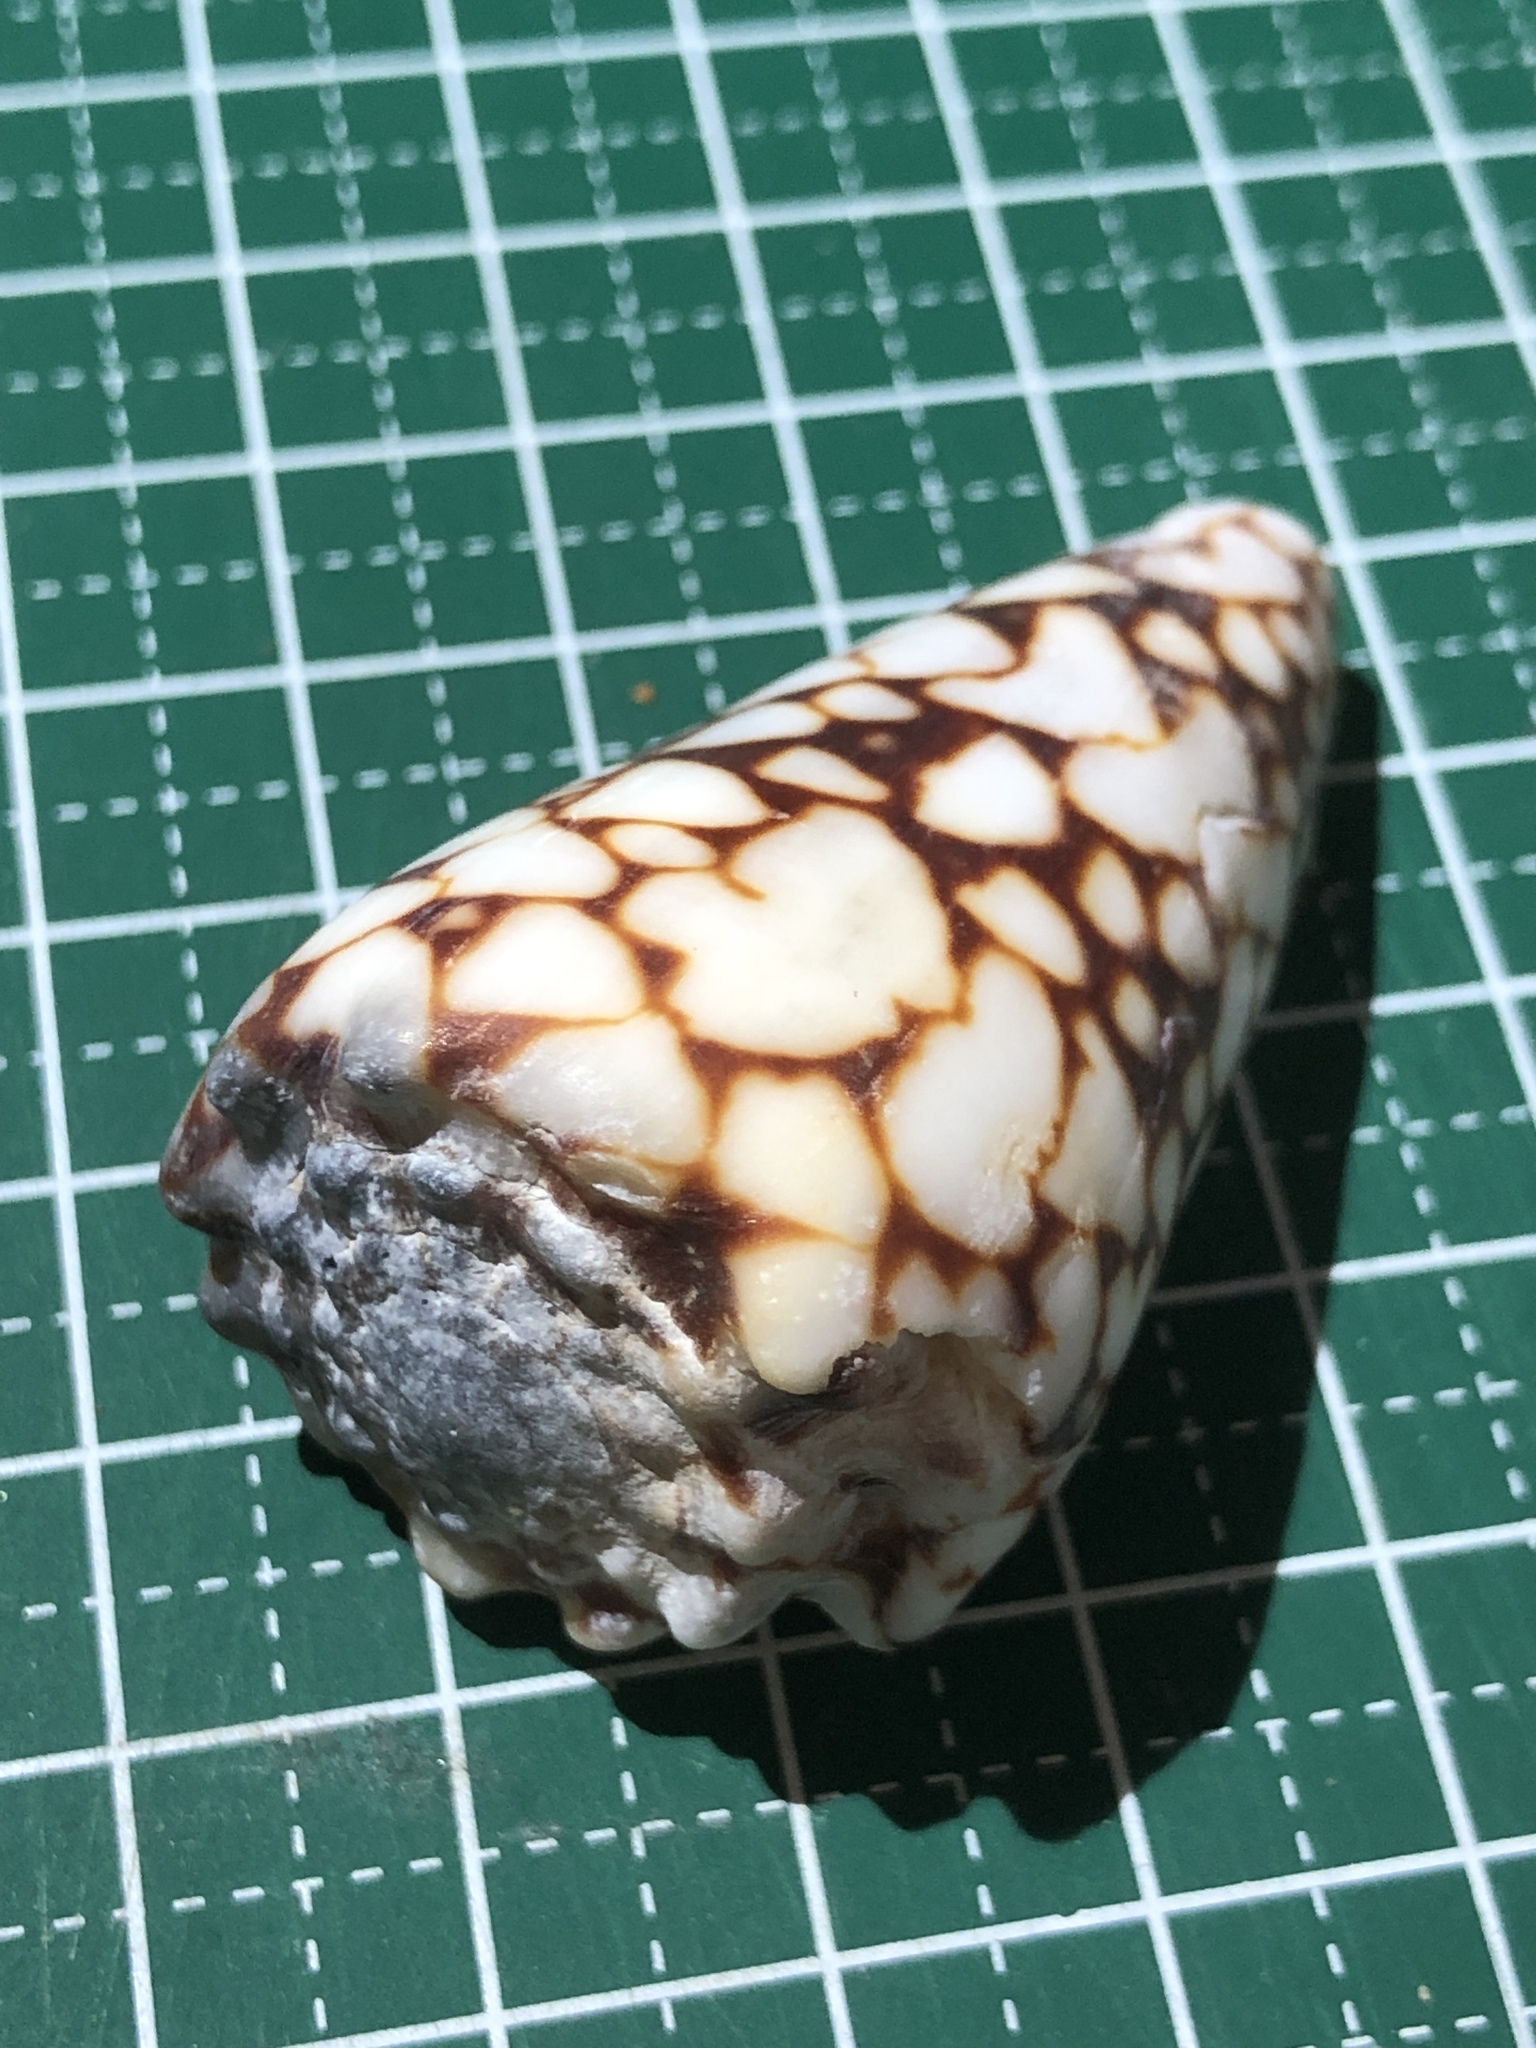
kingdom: Animalia
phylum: Mollusca
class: Gastropoda
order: Neogastropoda
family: Conidae
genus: Conus
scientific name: Conus bandanus
